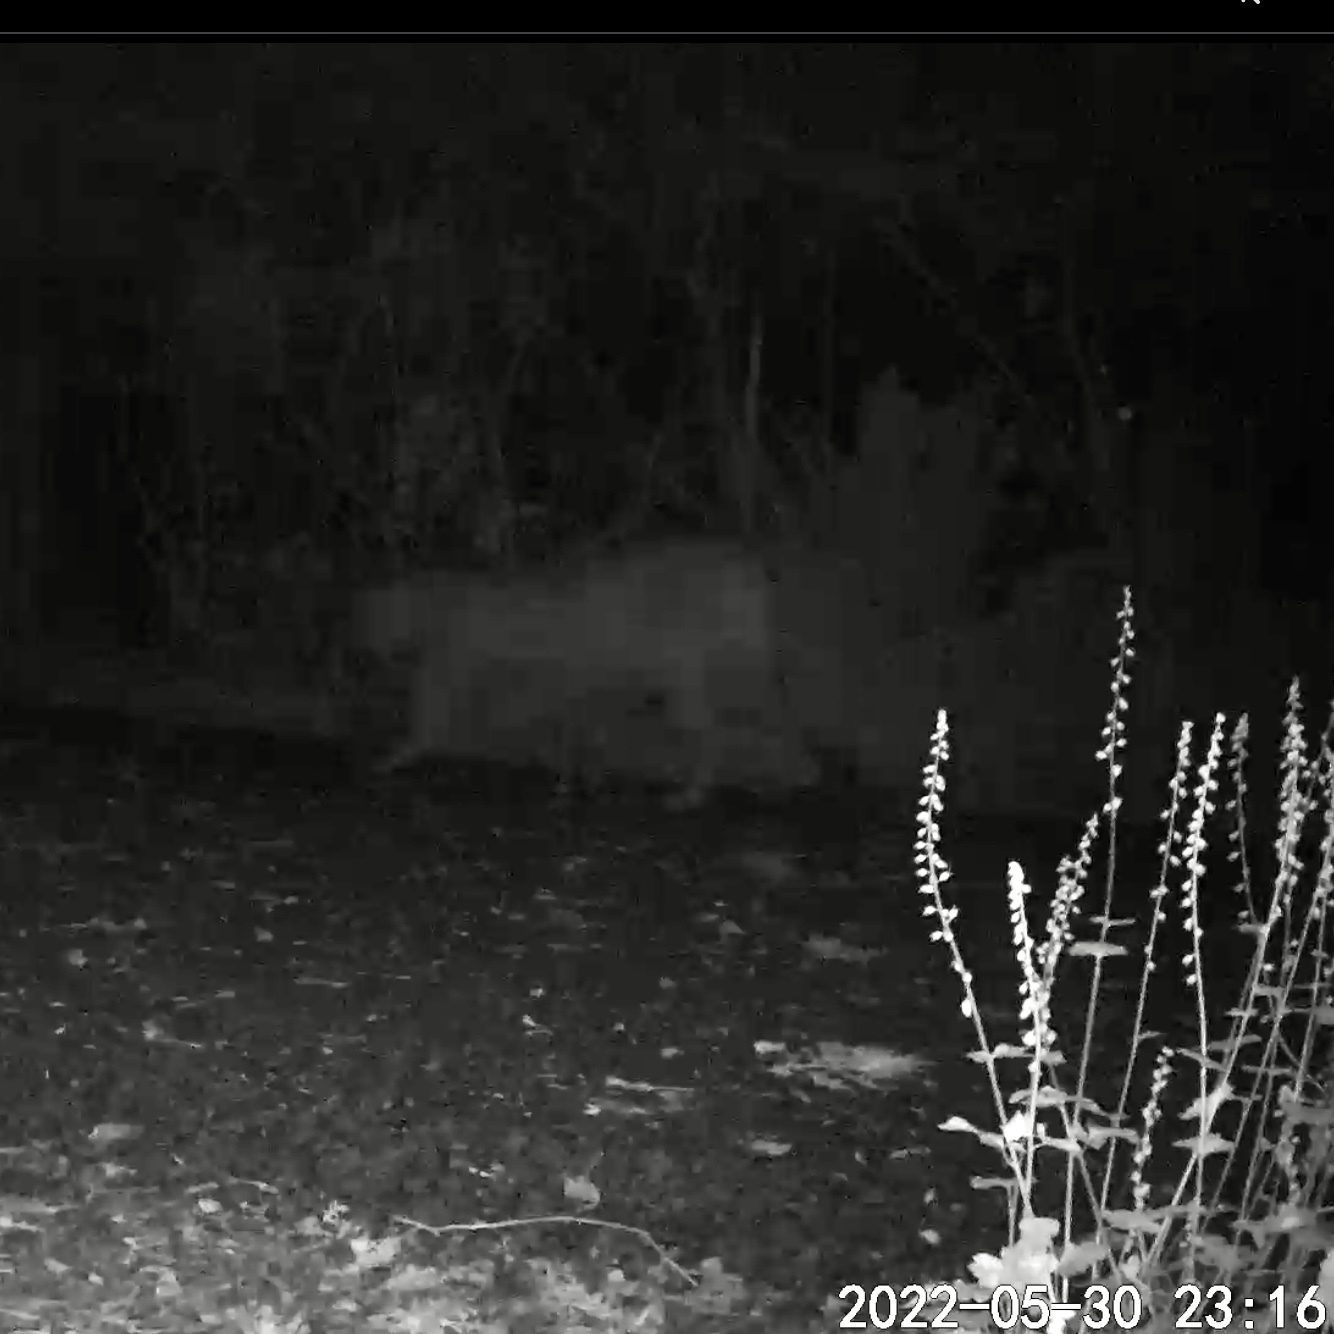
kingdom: Animalia
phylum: Chordata
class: Mammalia
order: Carnivora
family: Felidae
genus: Puma
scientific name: Puma concolor
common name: Puma
